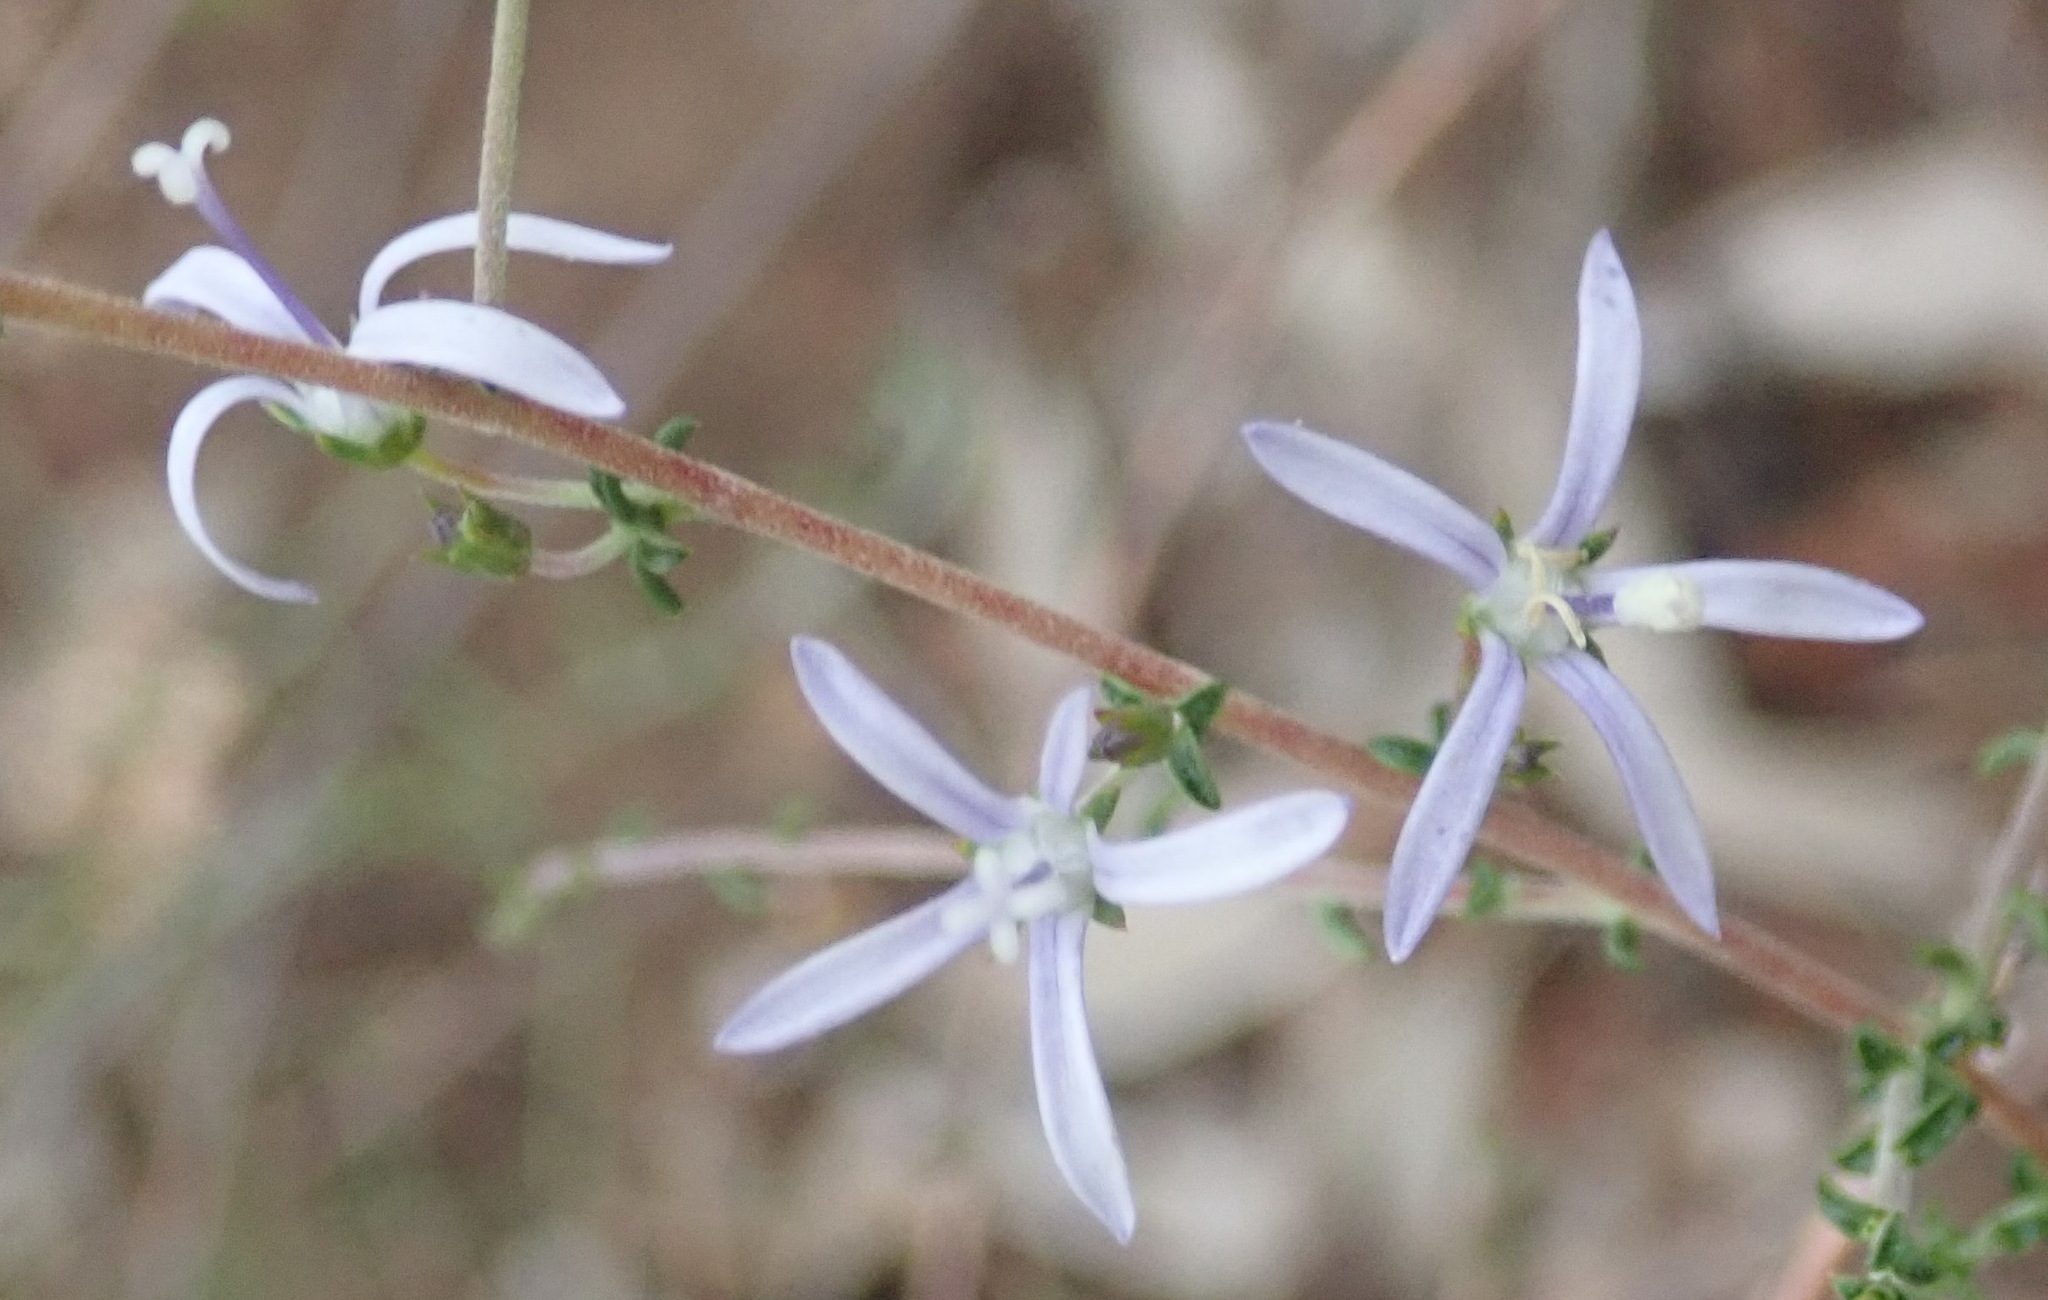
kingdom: Plantae
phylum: Tracheophyta
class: Magnoliopsida
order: Asterales
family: Campanulaceae
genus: Wahlenbergia
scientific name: Wahlenbergia loddigesii
